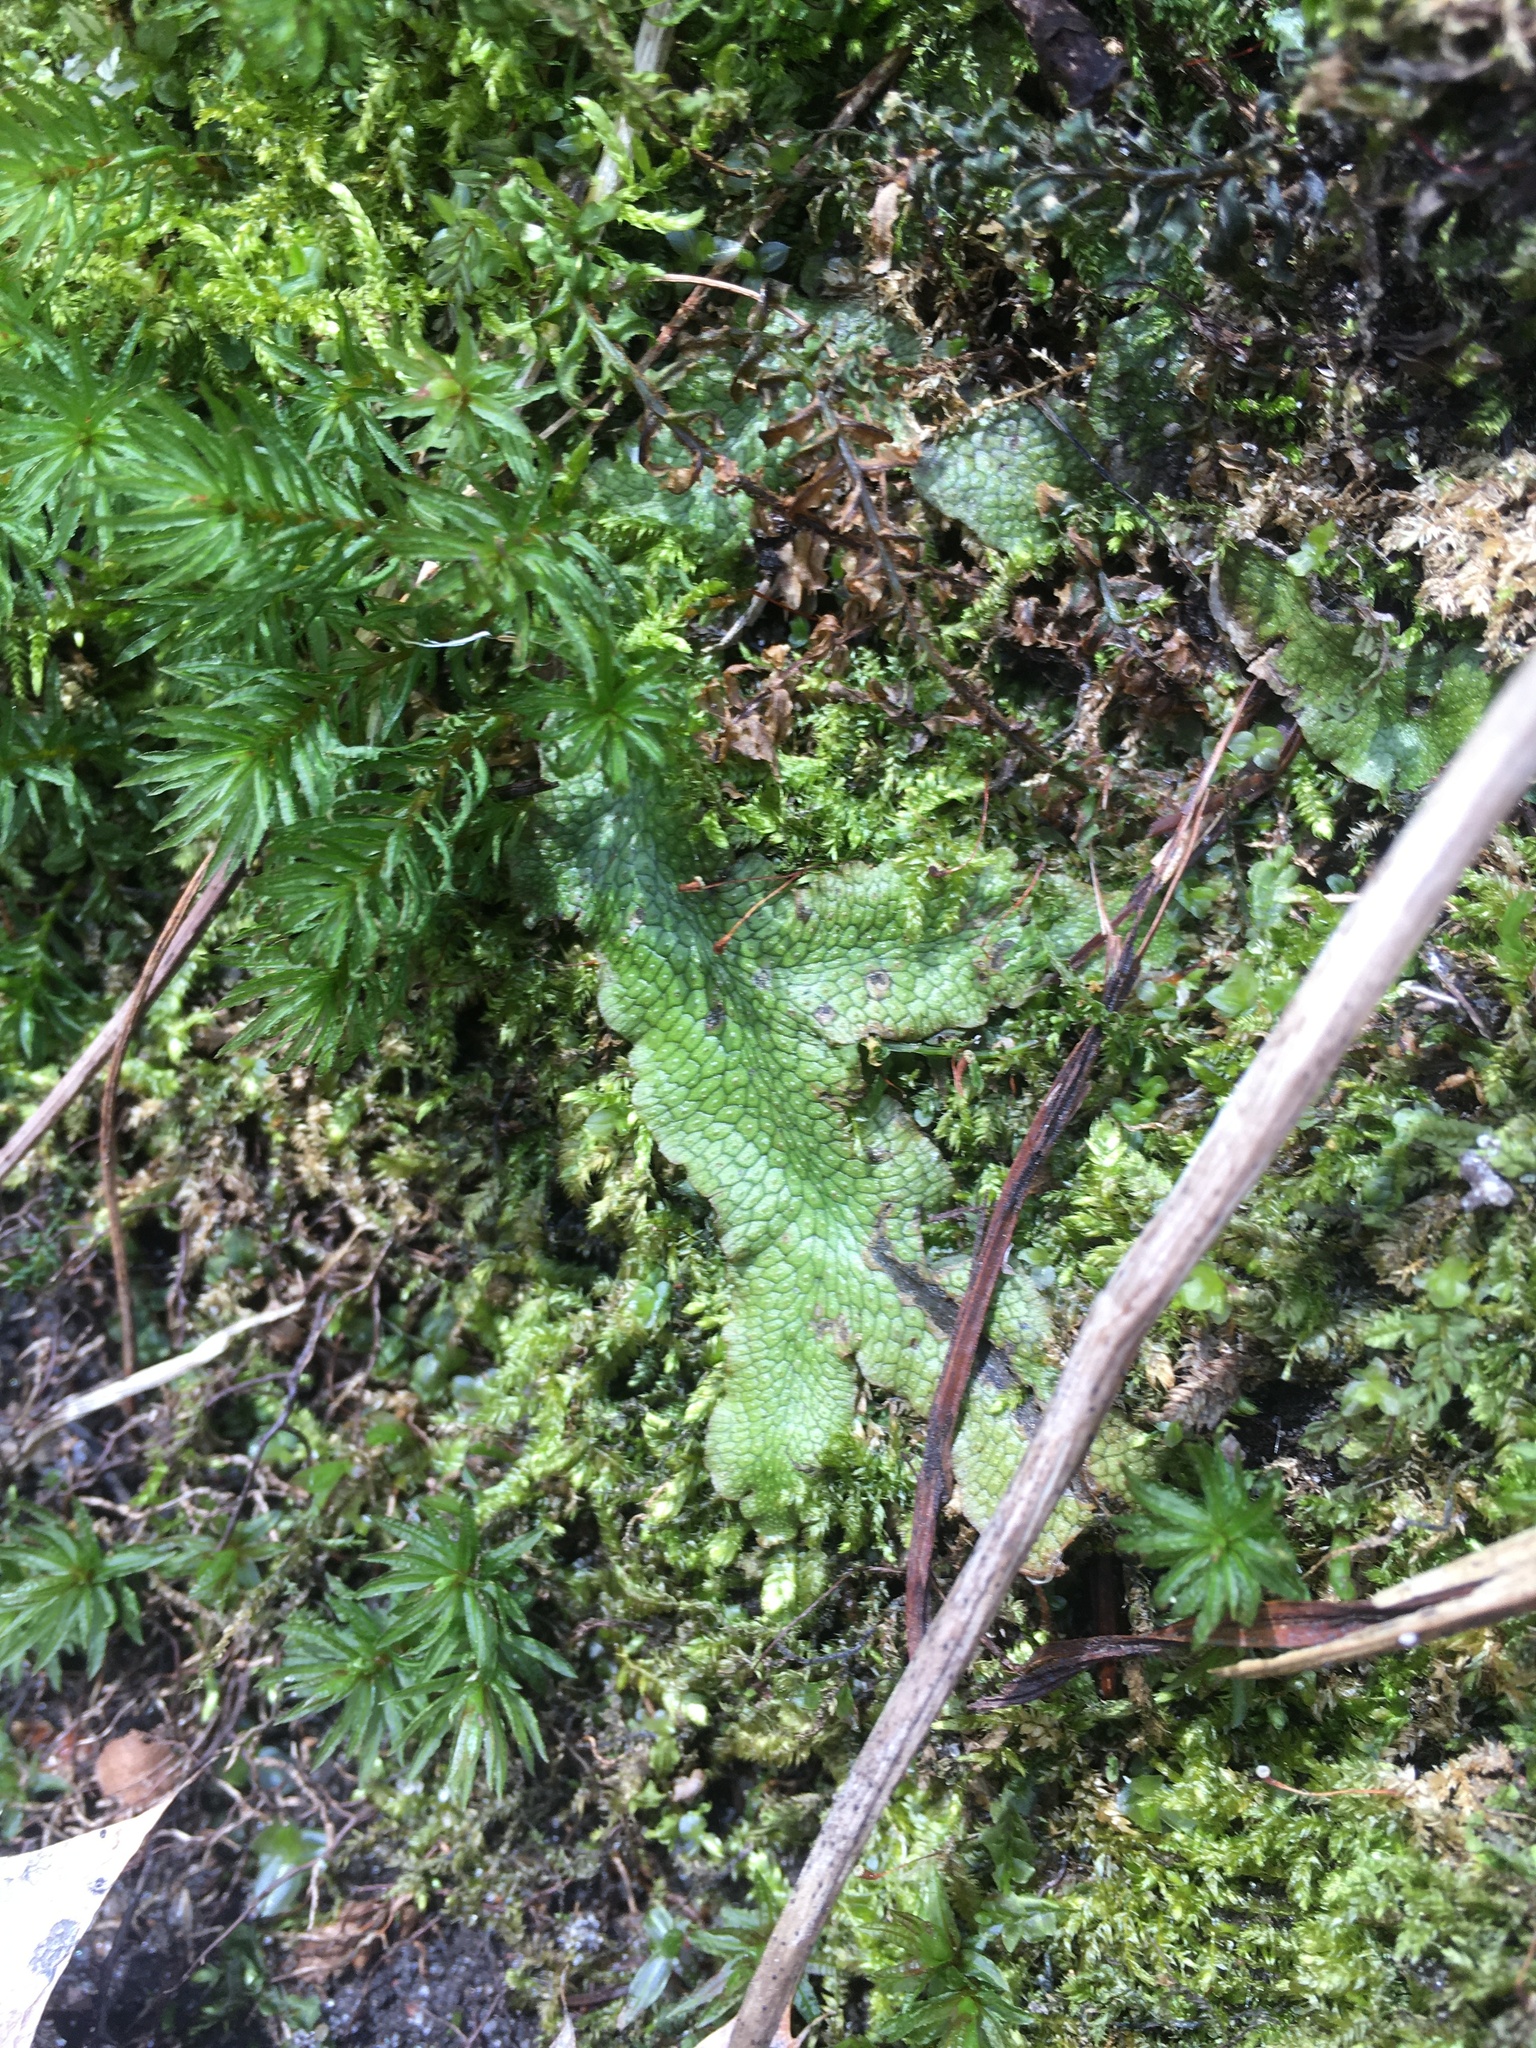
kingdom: Plantae
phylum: Marchantiophyta
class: Marchantiopsida
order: Marchantiales
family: Conocephalaceae
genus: Conocephalum
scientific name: Conocephalum salebrosum
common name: Cat-tongue liverwort
